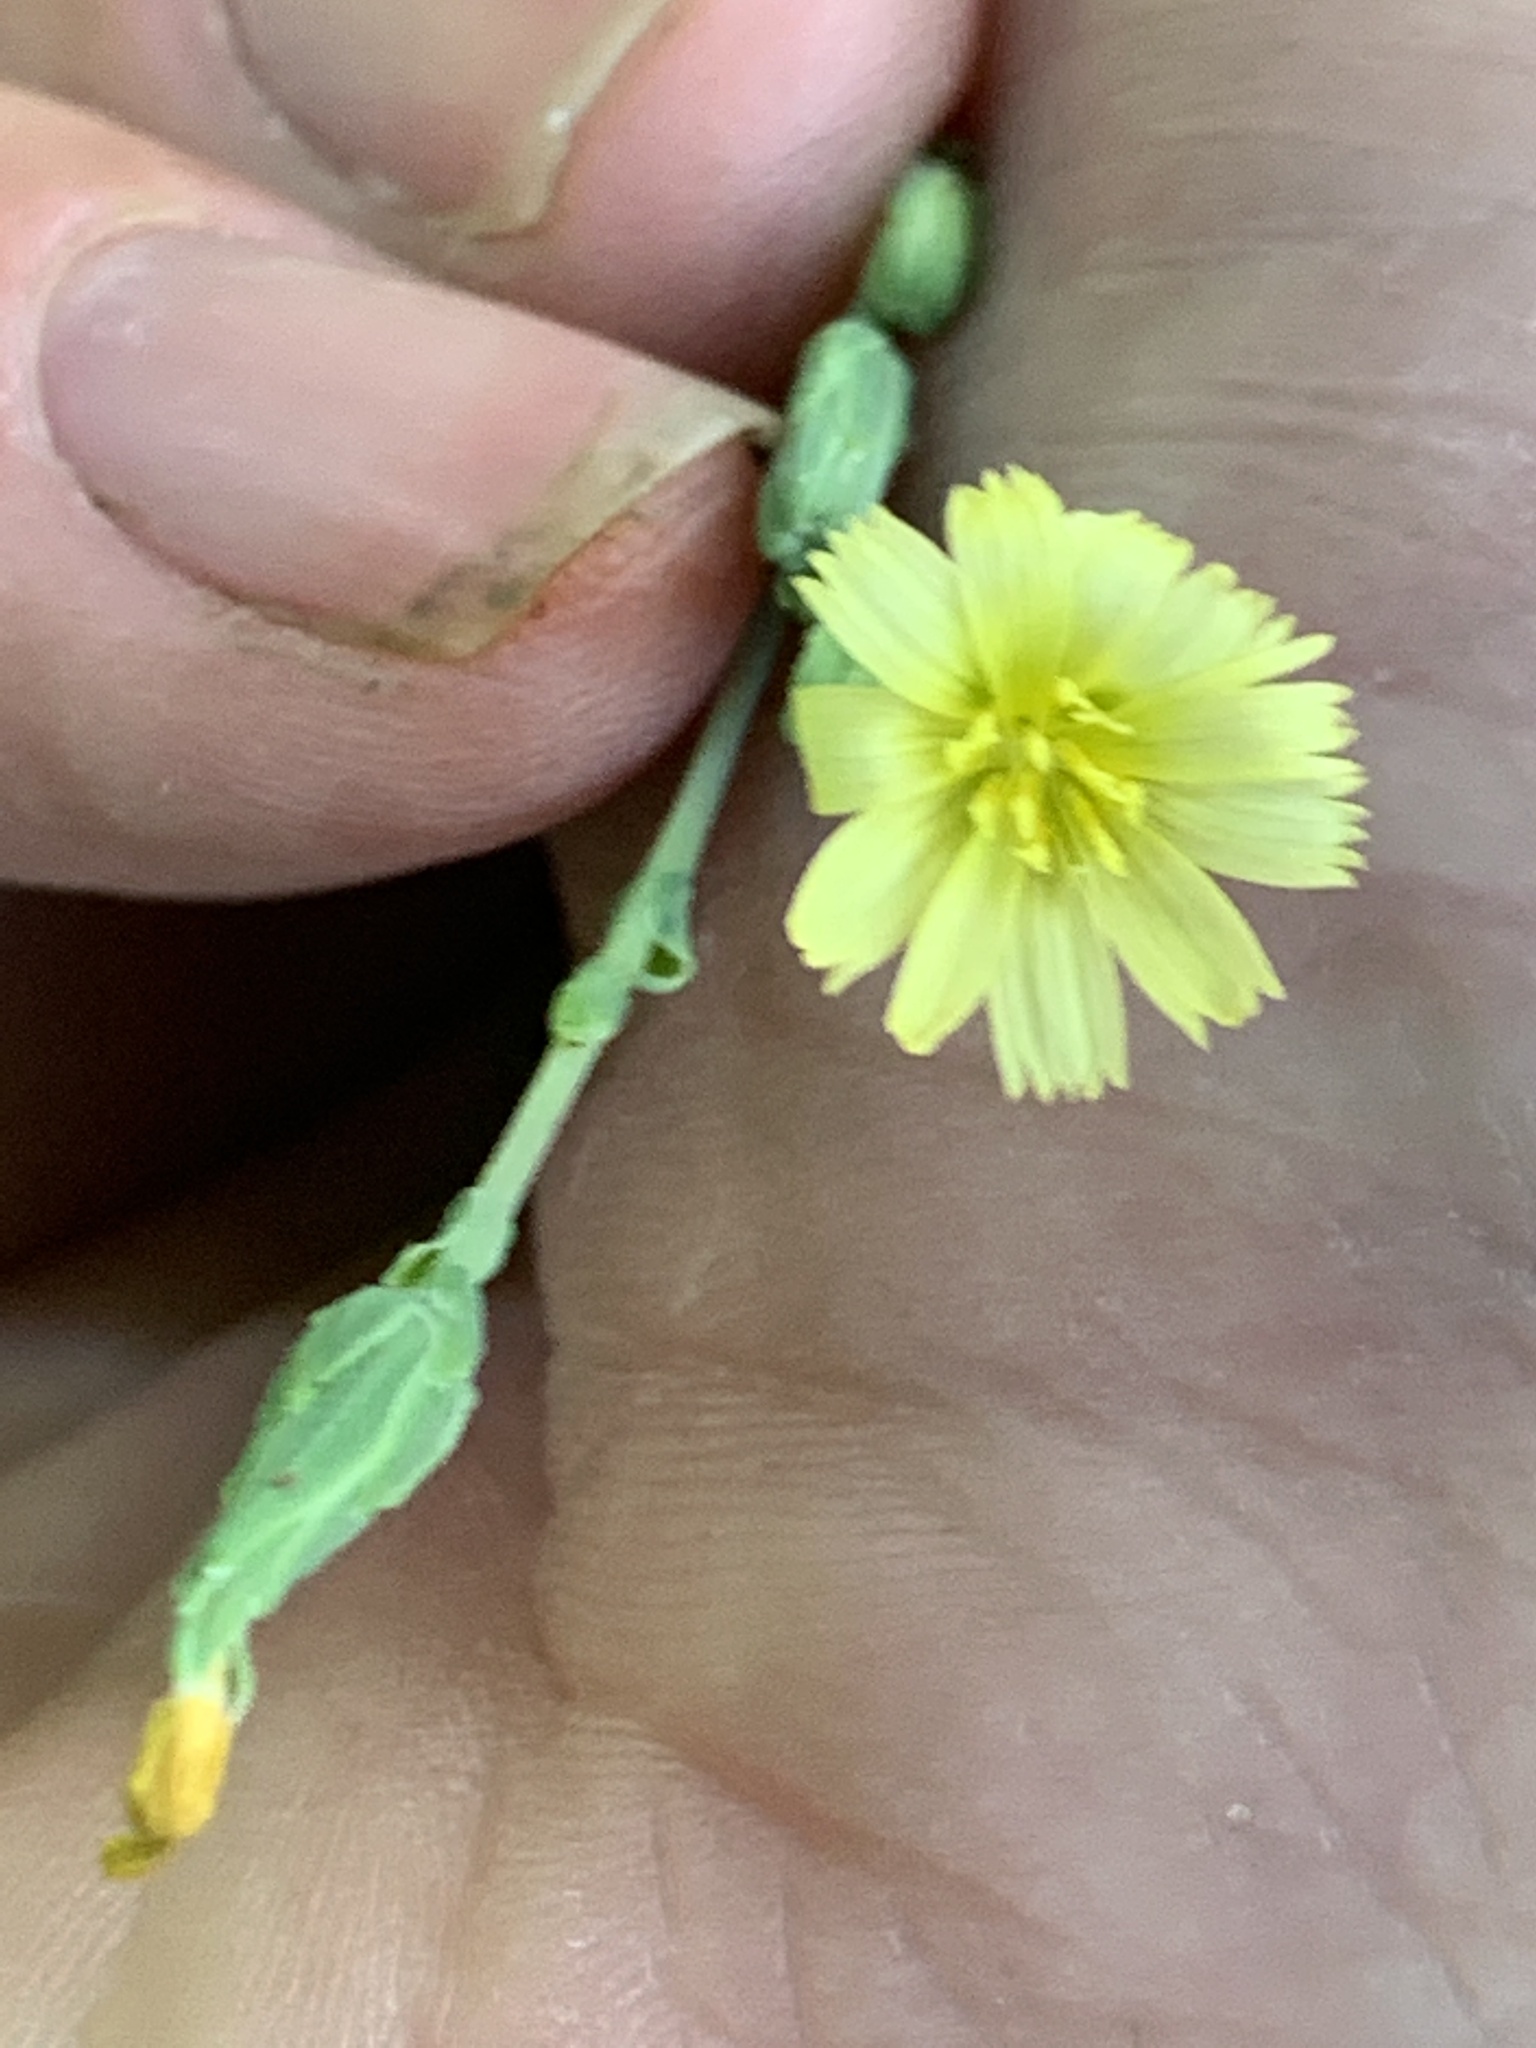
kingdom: Plantae
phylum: Tracheophyta
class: Magnoliopsida
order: Asterales
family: Asteraceae
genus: Lactuca
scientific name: Lactuca serriola
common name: Prickly lettuce
